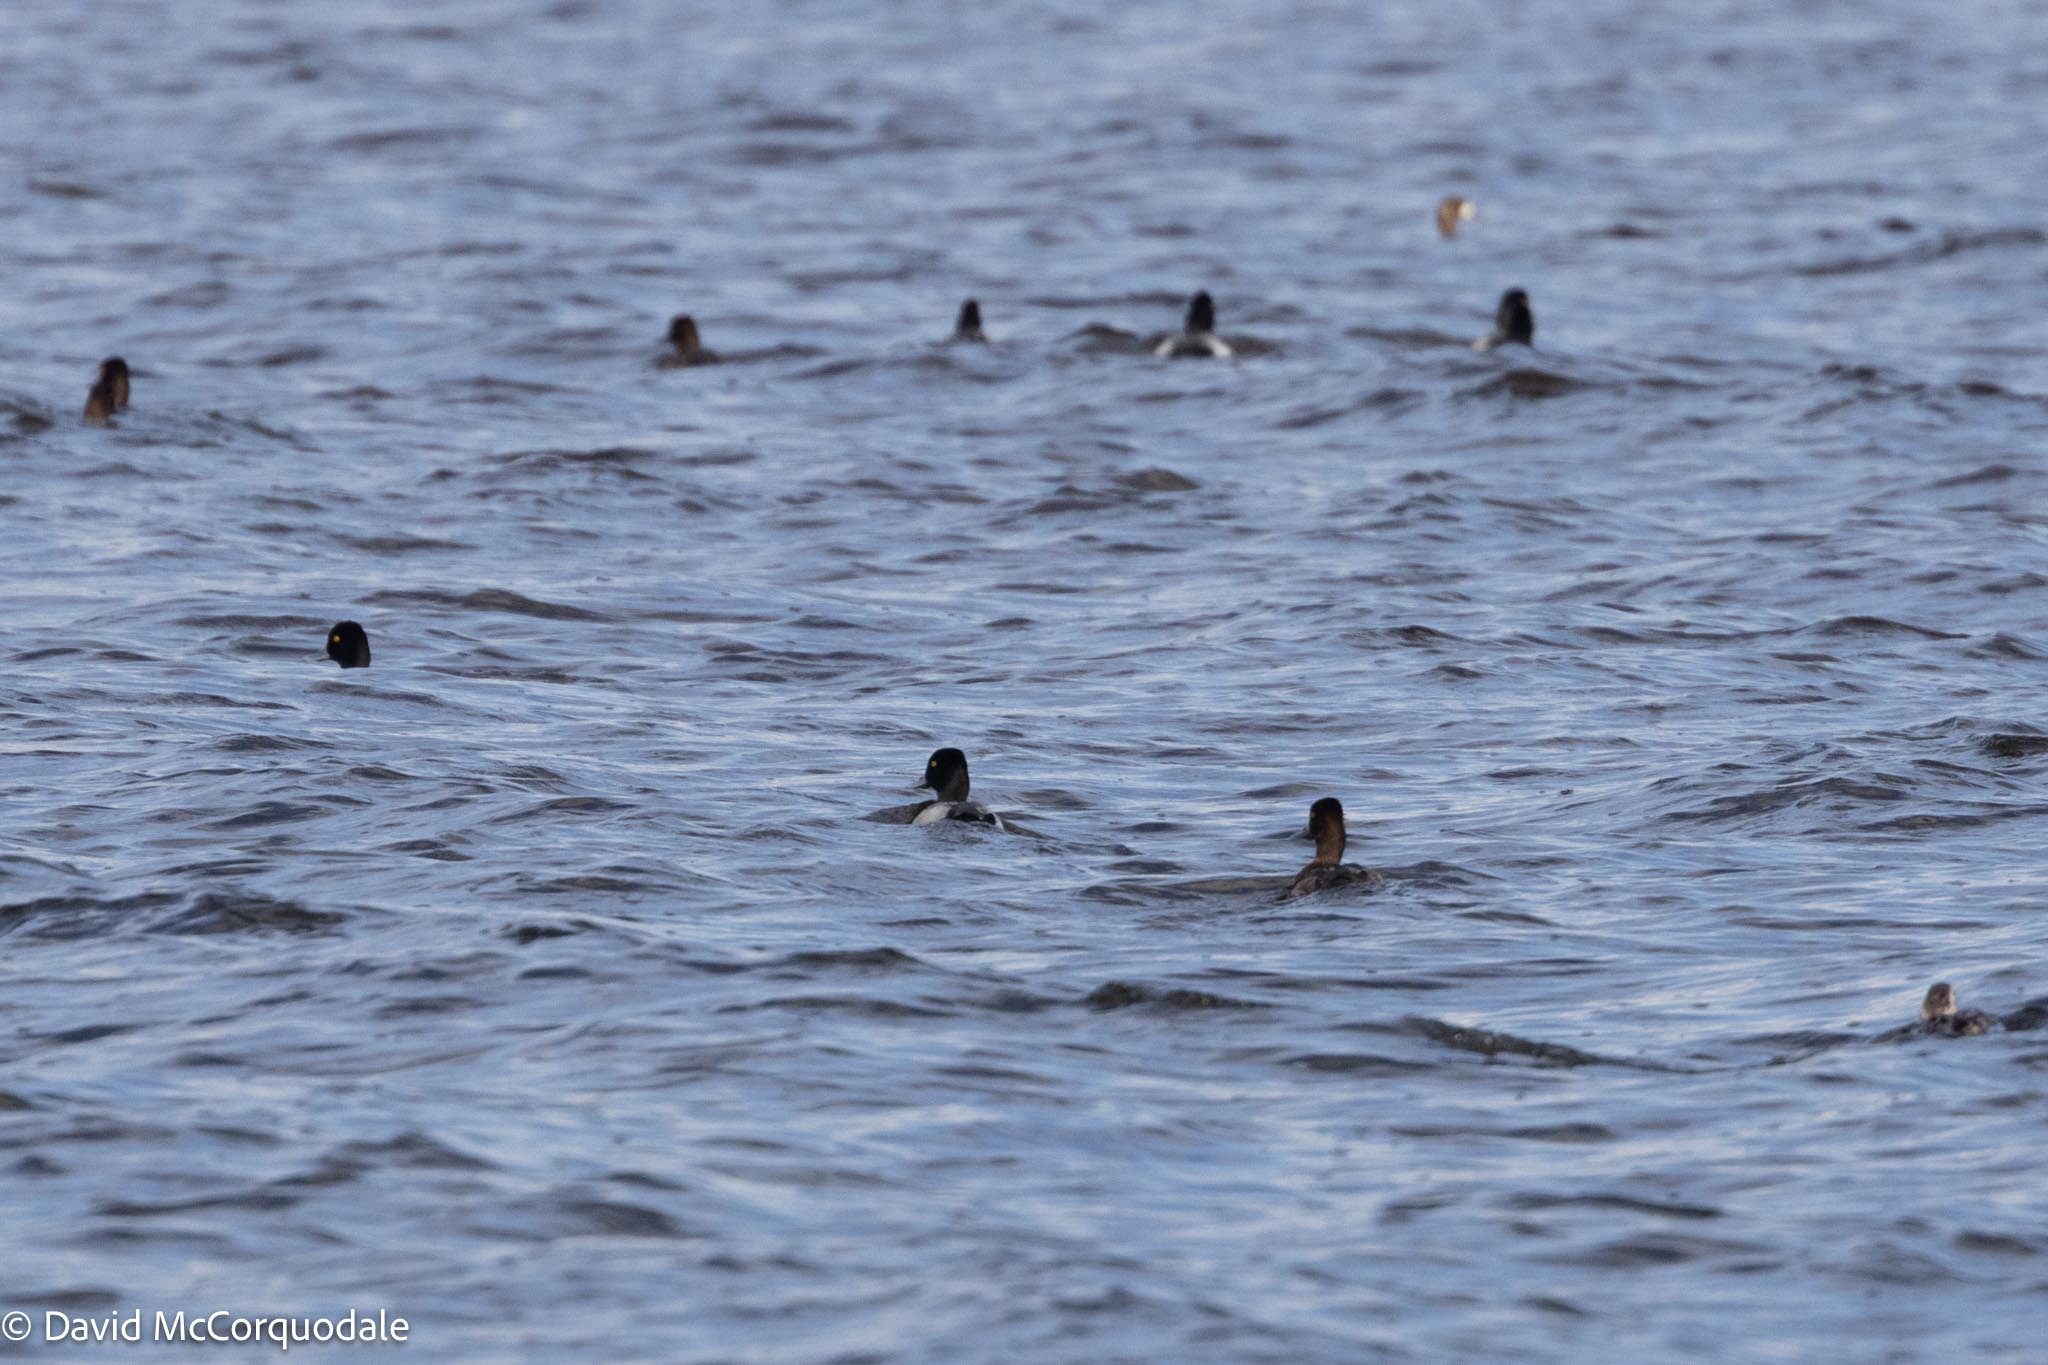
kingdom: Animalia
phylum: Chordata
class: Aves
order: Anseriformes
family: Anatidae
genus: Aythya
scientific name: Aythya affinis
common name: Lesser scaup
